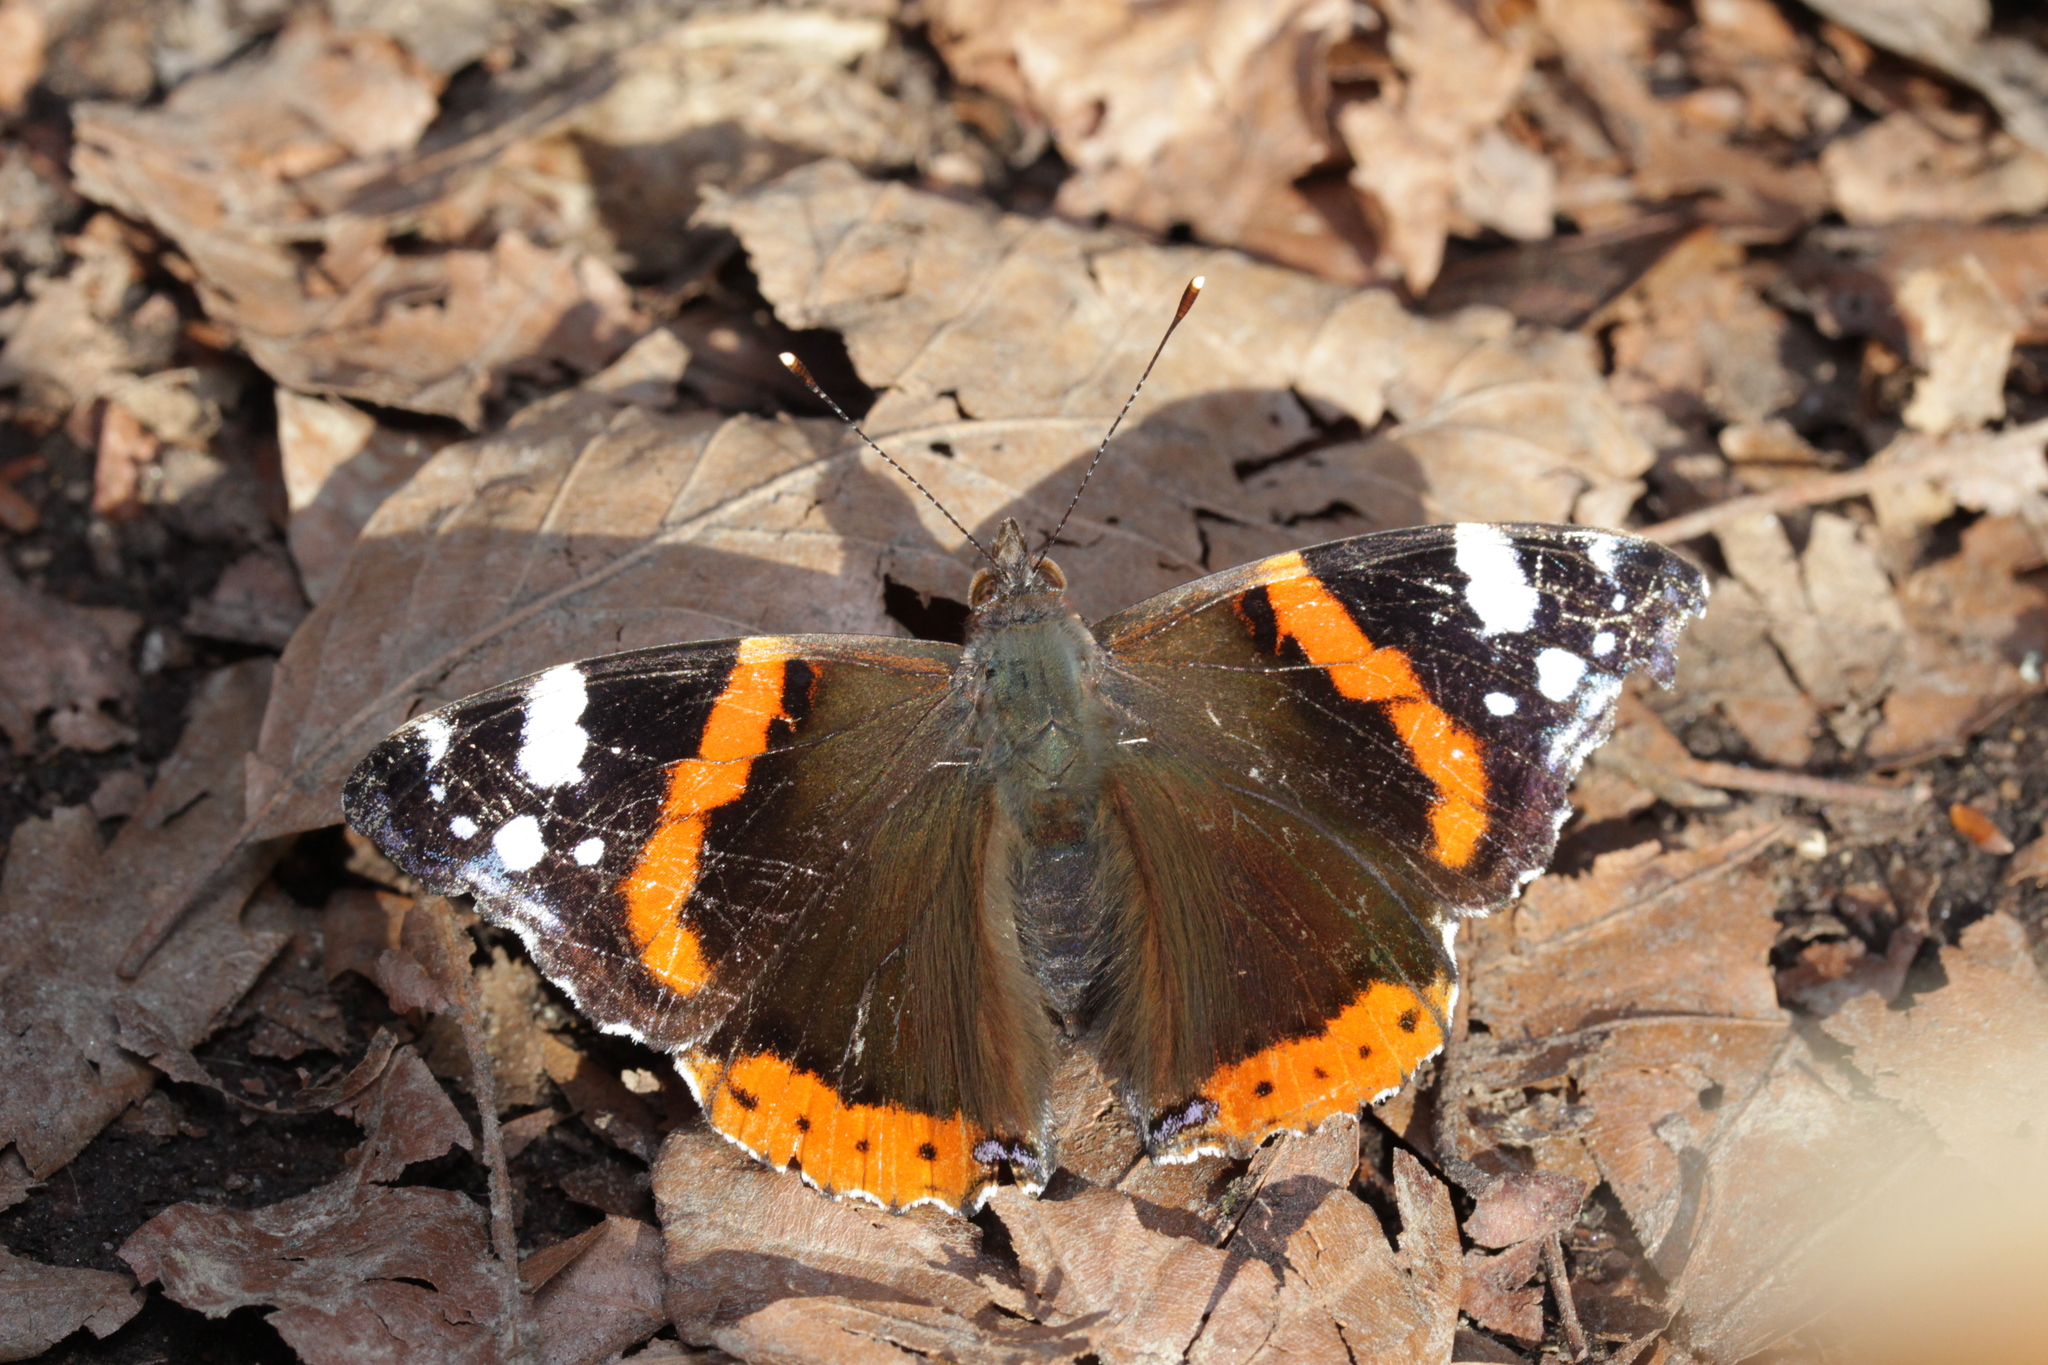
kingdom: Animalia
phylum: Arthropoda
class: Insecta
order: Lepidoptera
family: Nymphalidae
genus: Vanessa
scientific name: Vanessa atalanta
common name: Red admiral
